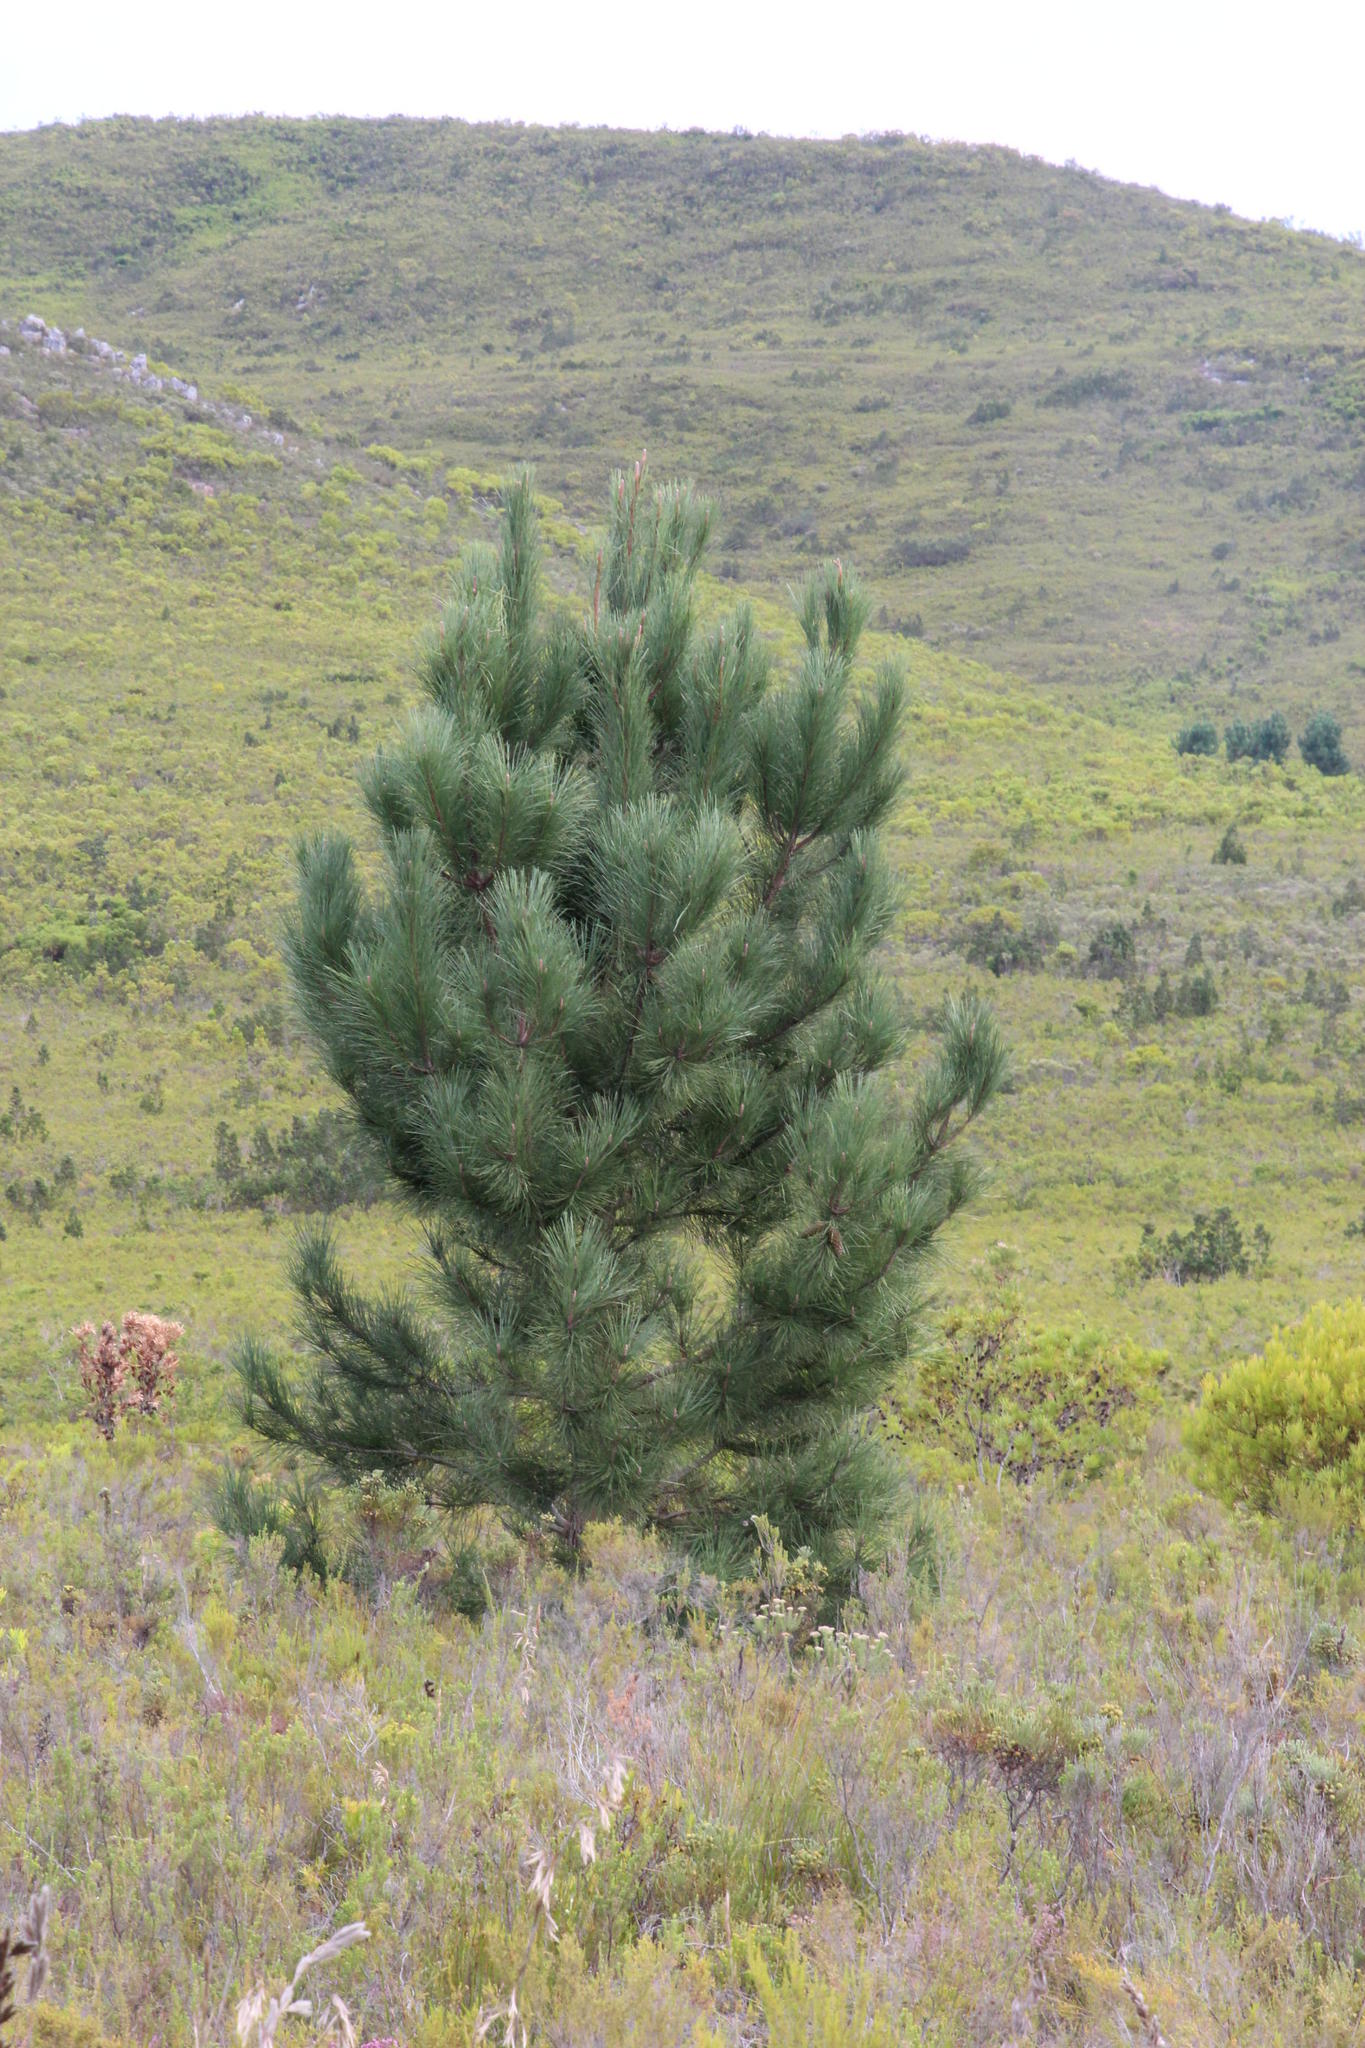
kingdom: Plantae
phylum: Tracheophyta
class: Pinopsida
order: Pinales
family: Pinaceae
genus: Pinus
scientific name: Pinus pinaster
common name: Maritime pine
